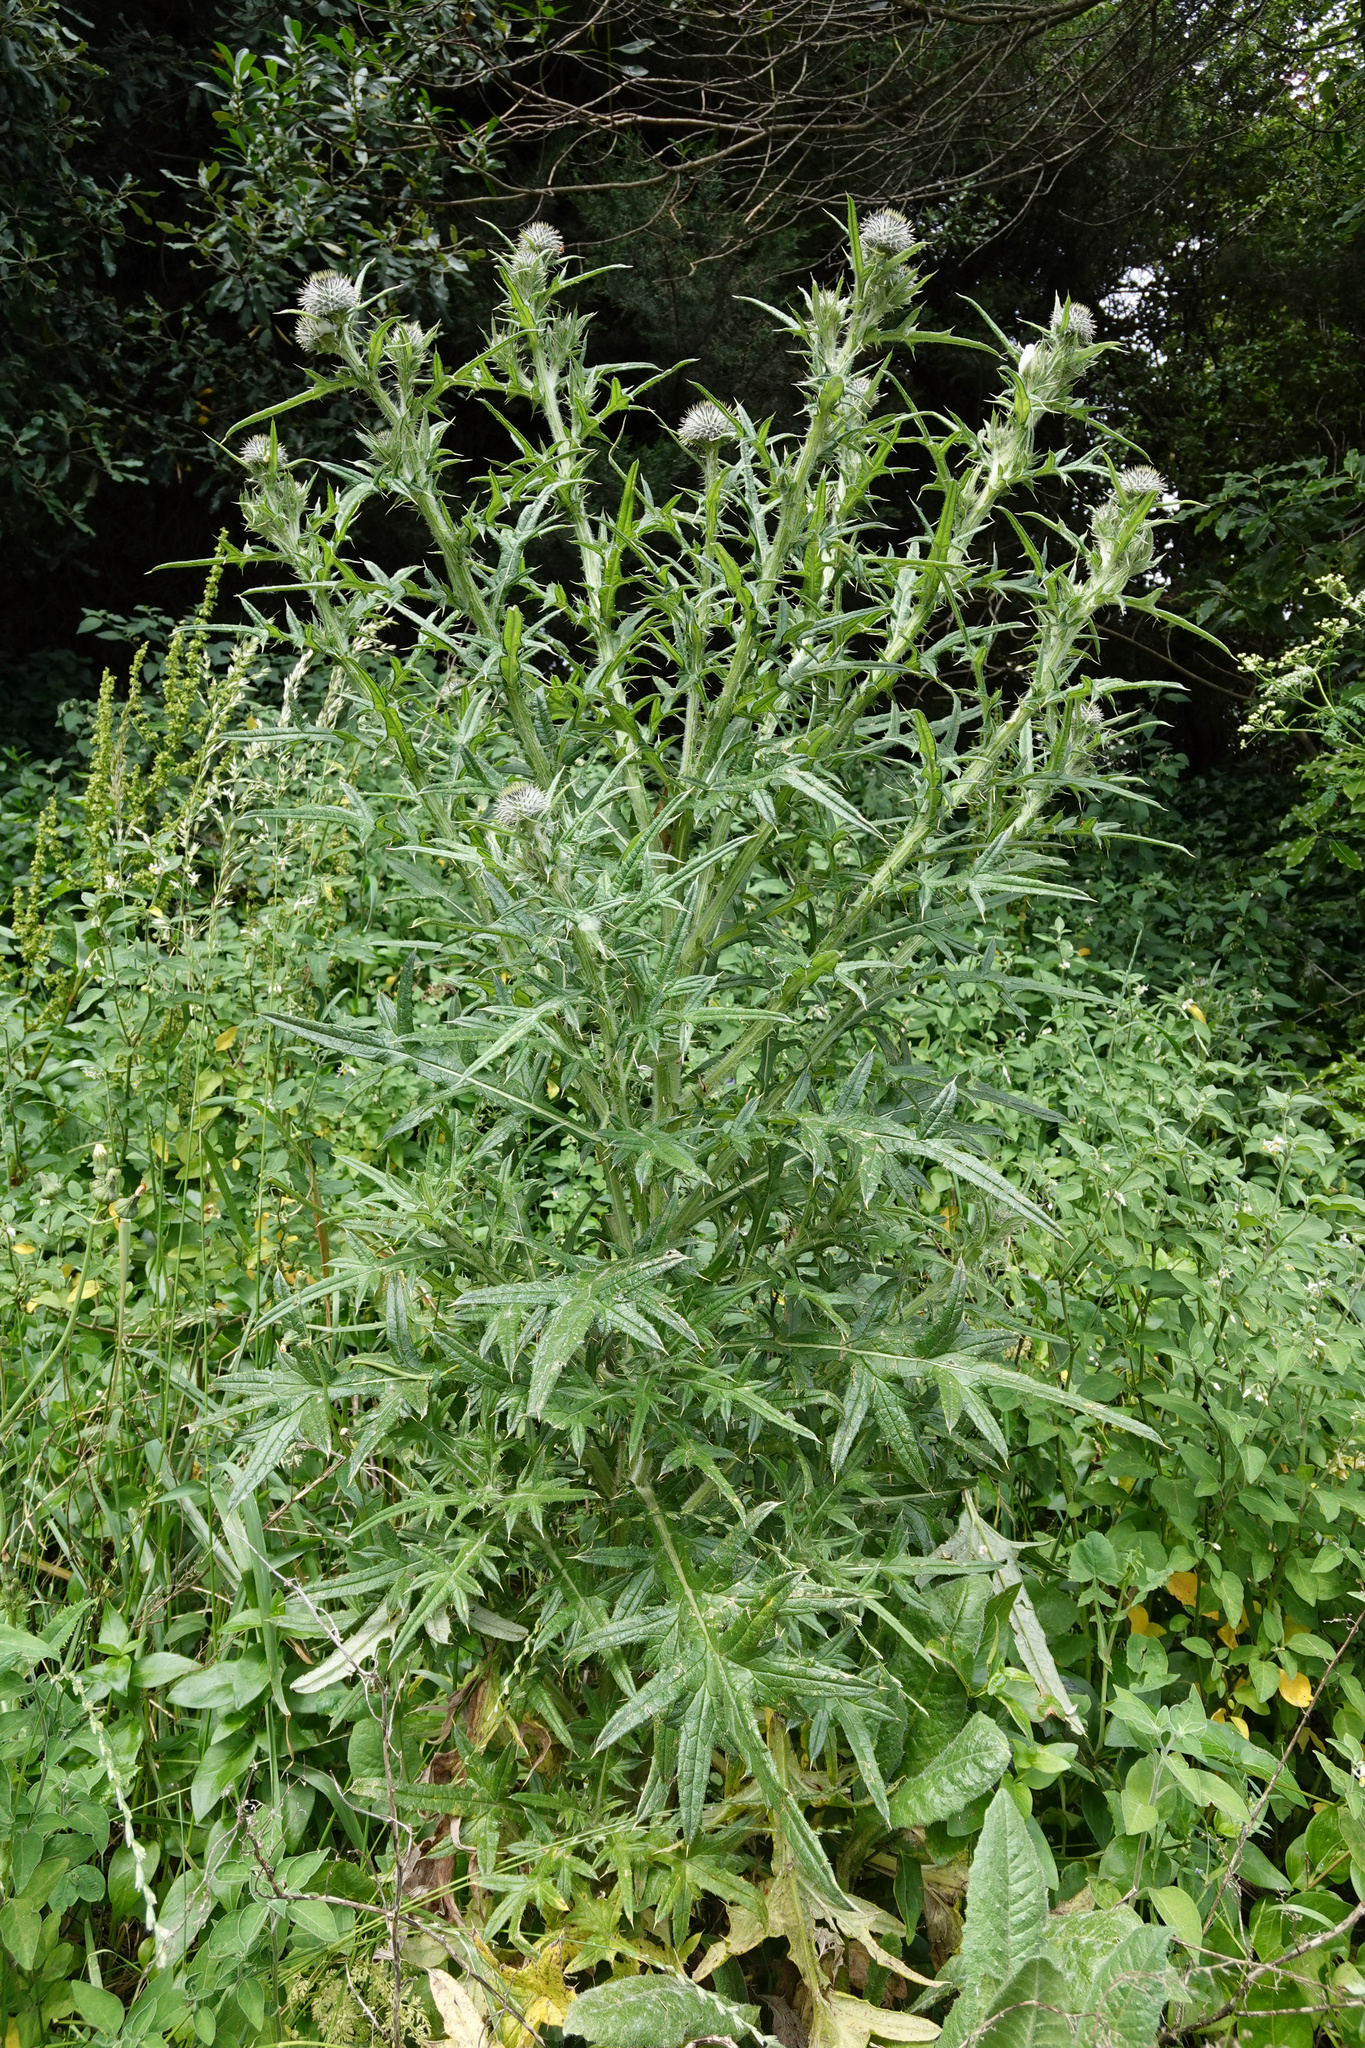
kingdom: Plantae
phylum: Tracheophyta
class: Magnoliopsida
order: Asterales
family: Asteraceae
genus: Cirsium
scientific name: Cirsium vulgare
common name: Bull thistle
